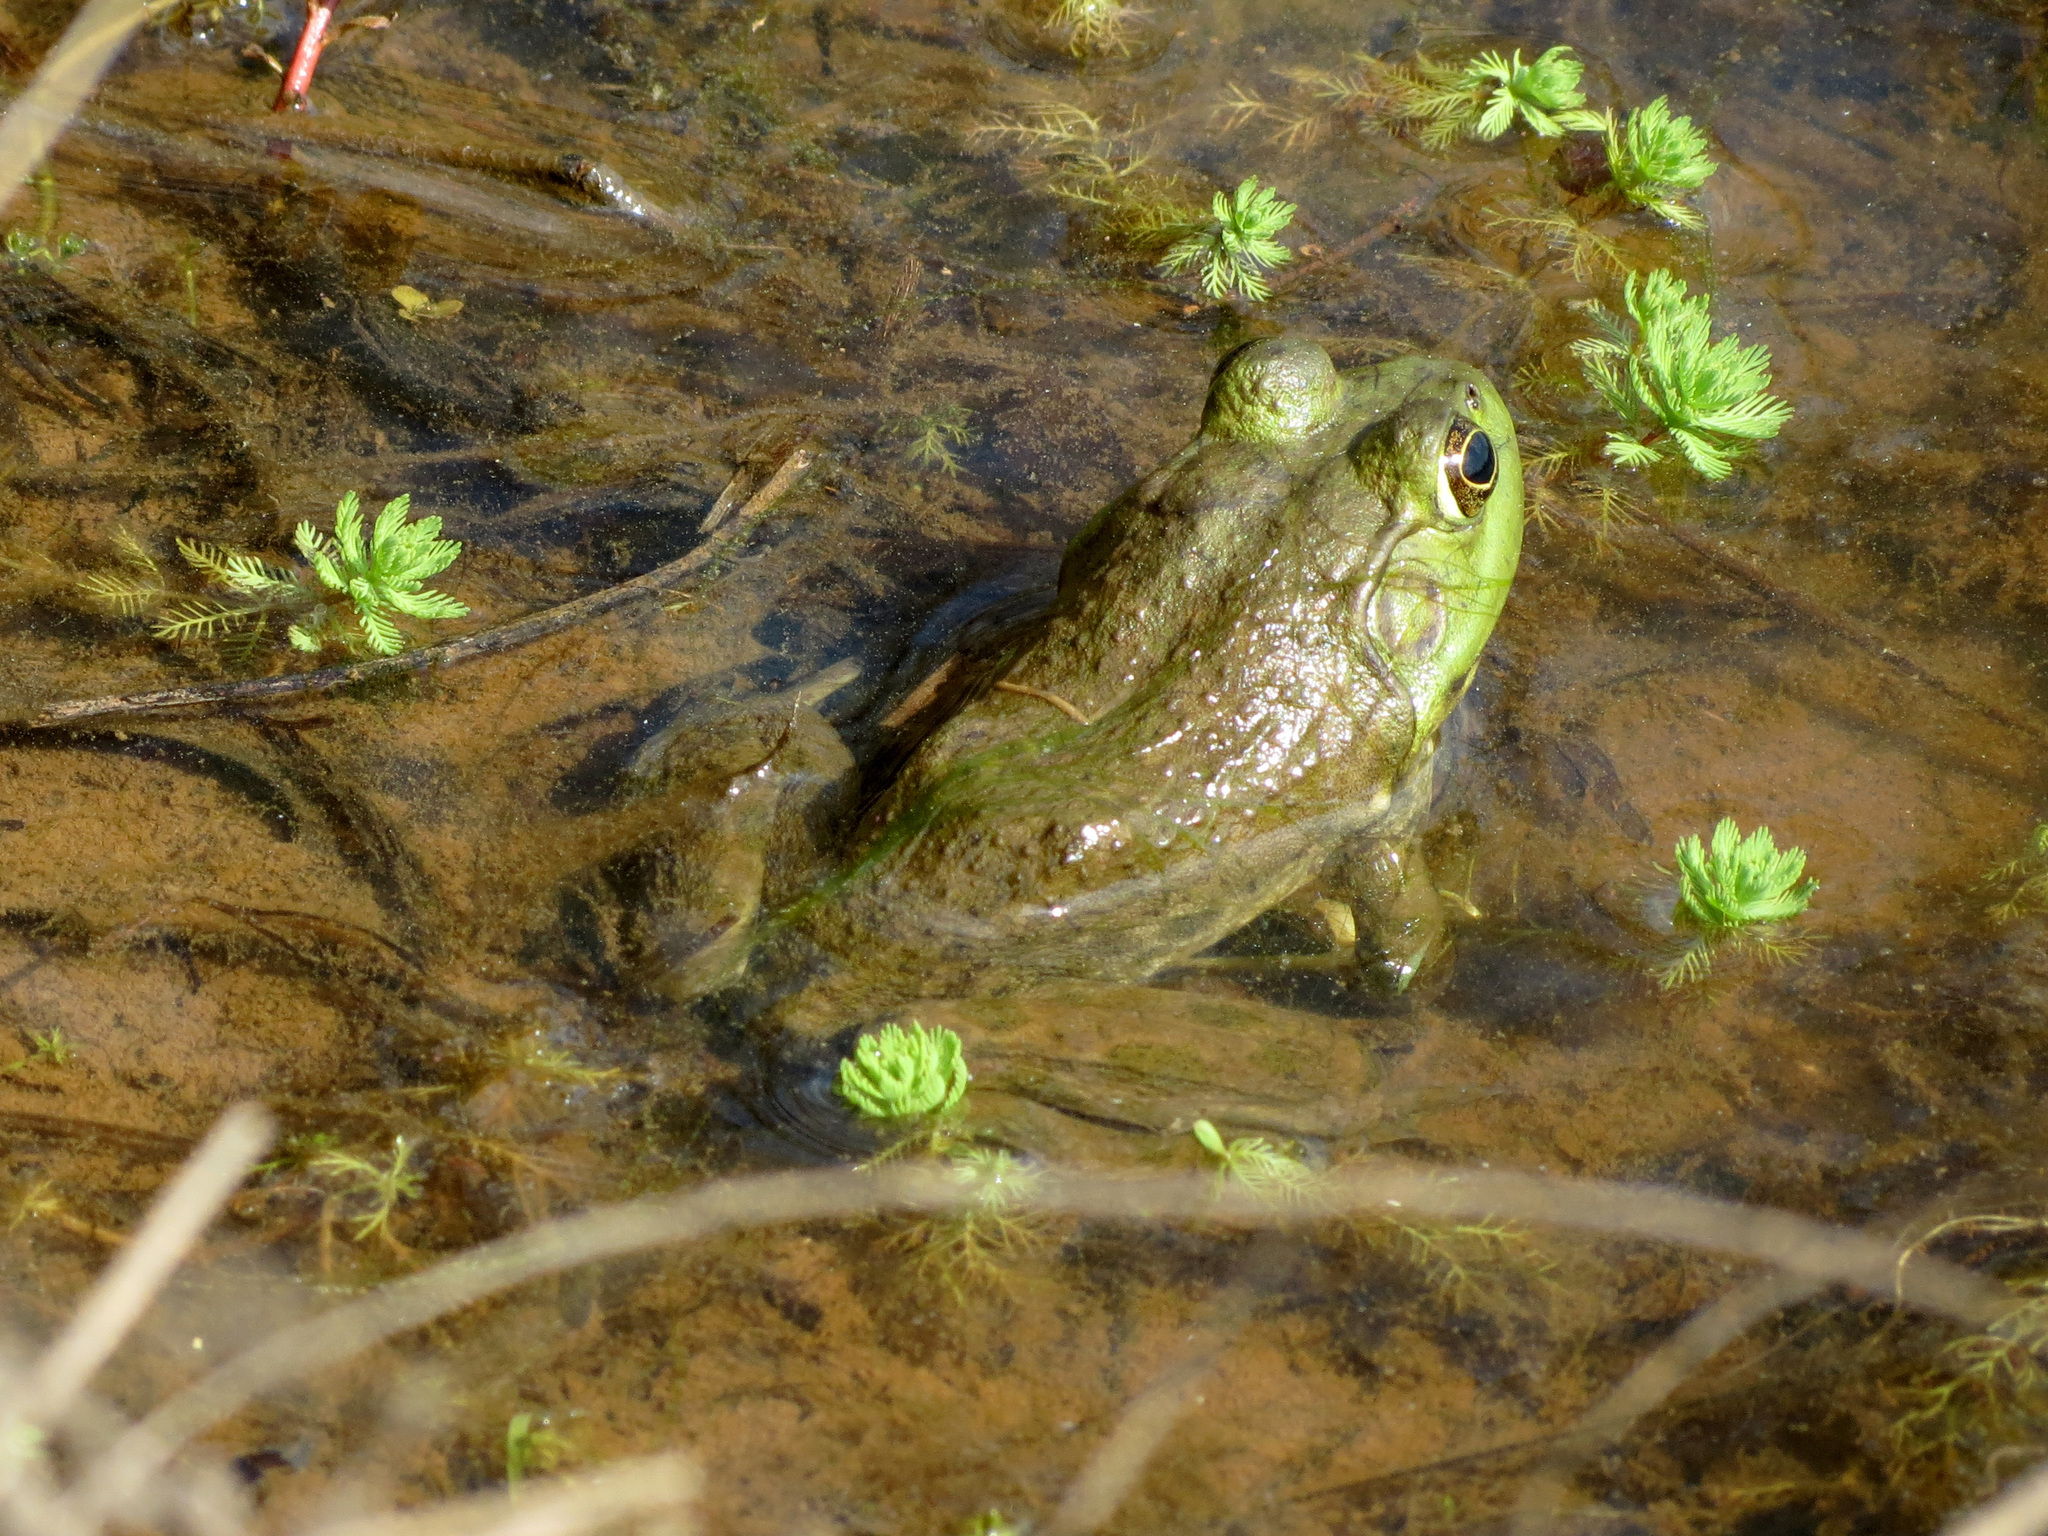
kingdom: Animalia
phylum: Chordata
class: Amphibia
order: Anura
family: Ranidae
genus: Lithobates
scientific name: Lithobates catesbeianus
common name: American bullfrog
